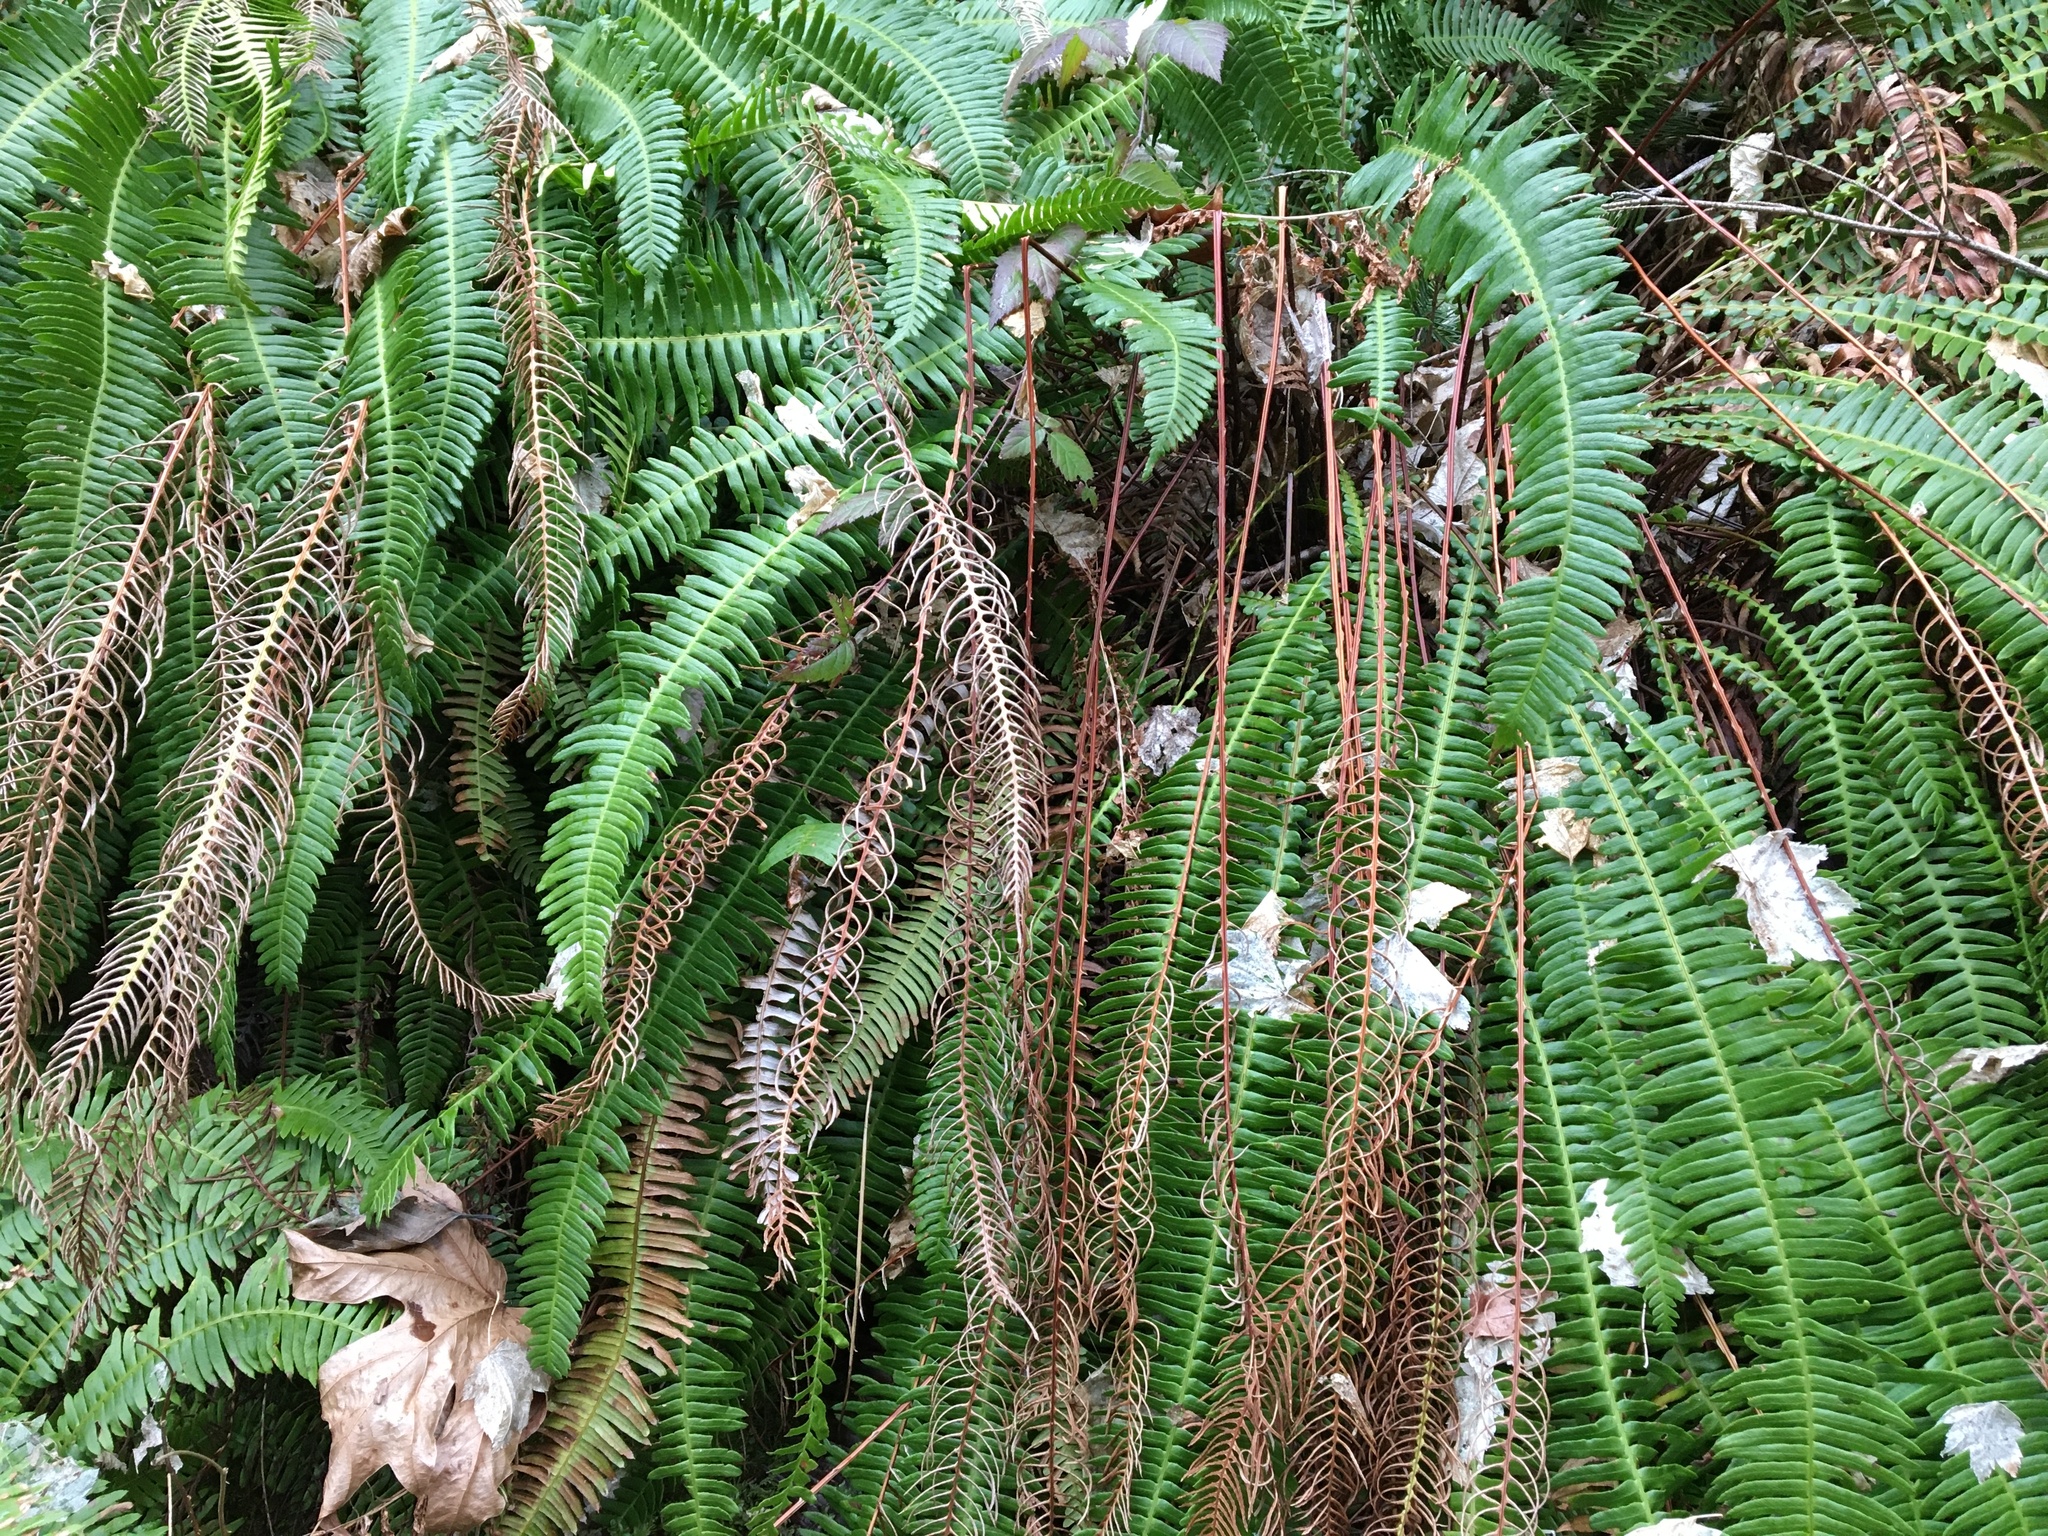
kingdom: Plantae
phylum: Tracheophyta
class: Polypodiopsida
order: Polypodiales
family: Blechnaceae
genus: Struthiopteris
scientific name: Struthiopteris spicant
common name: Deer fern
